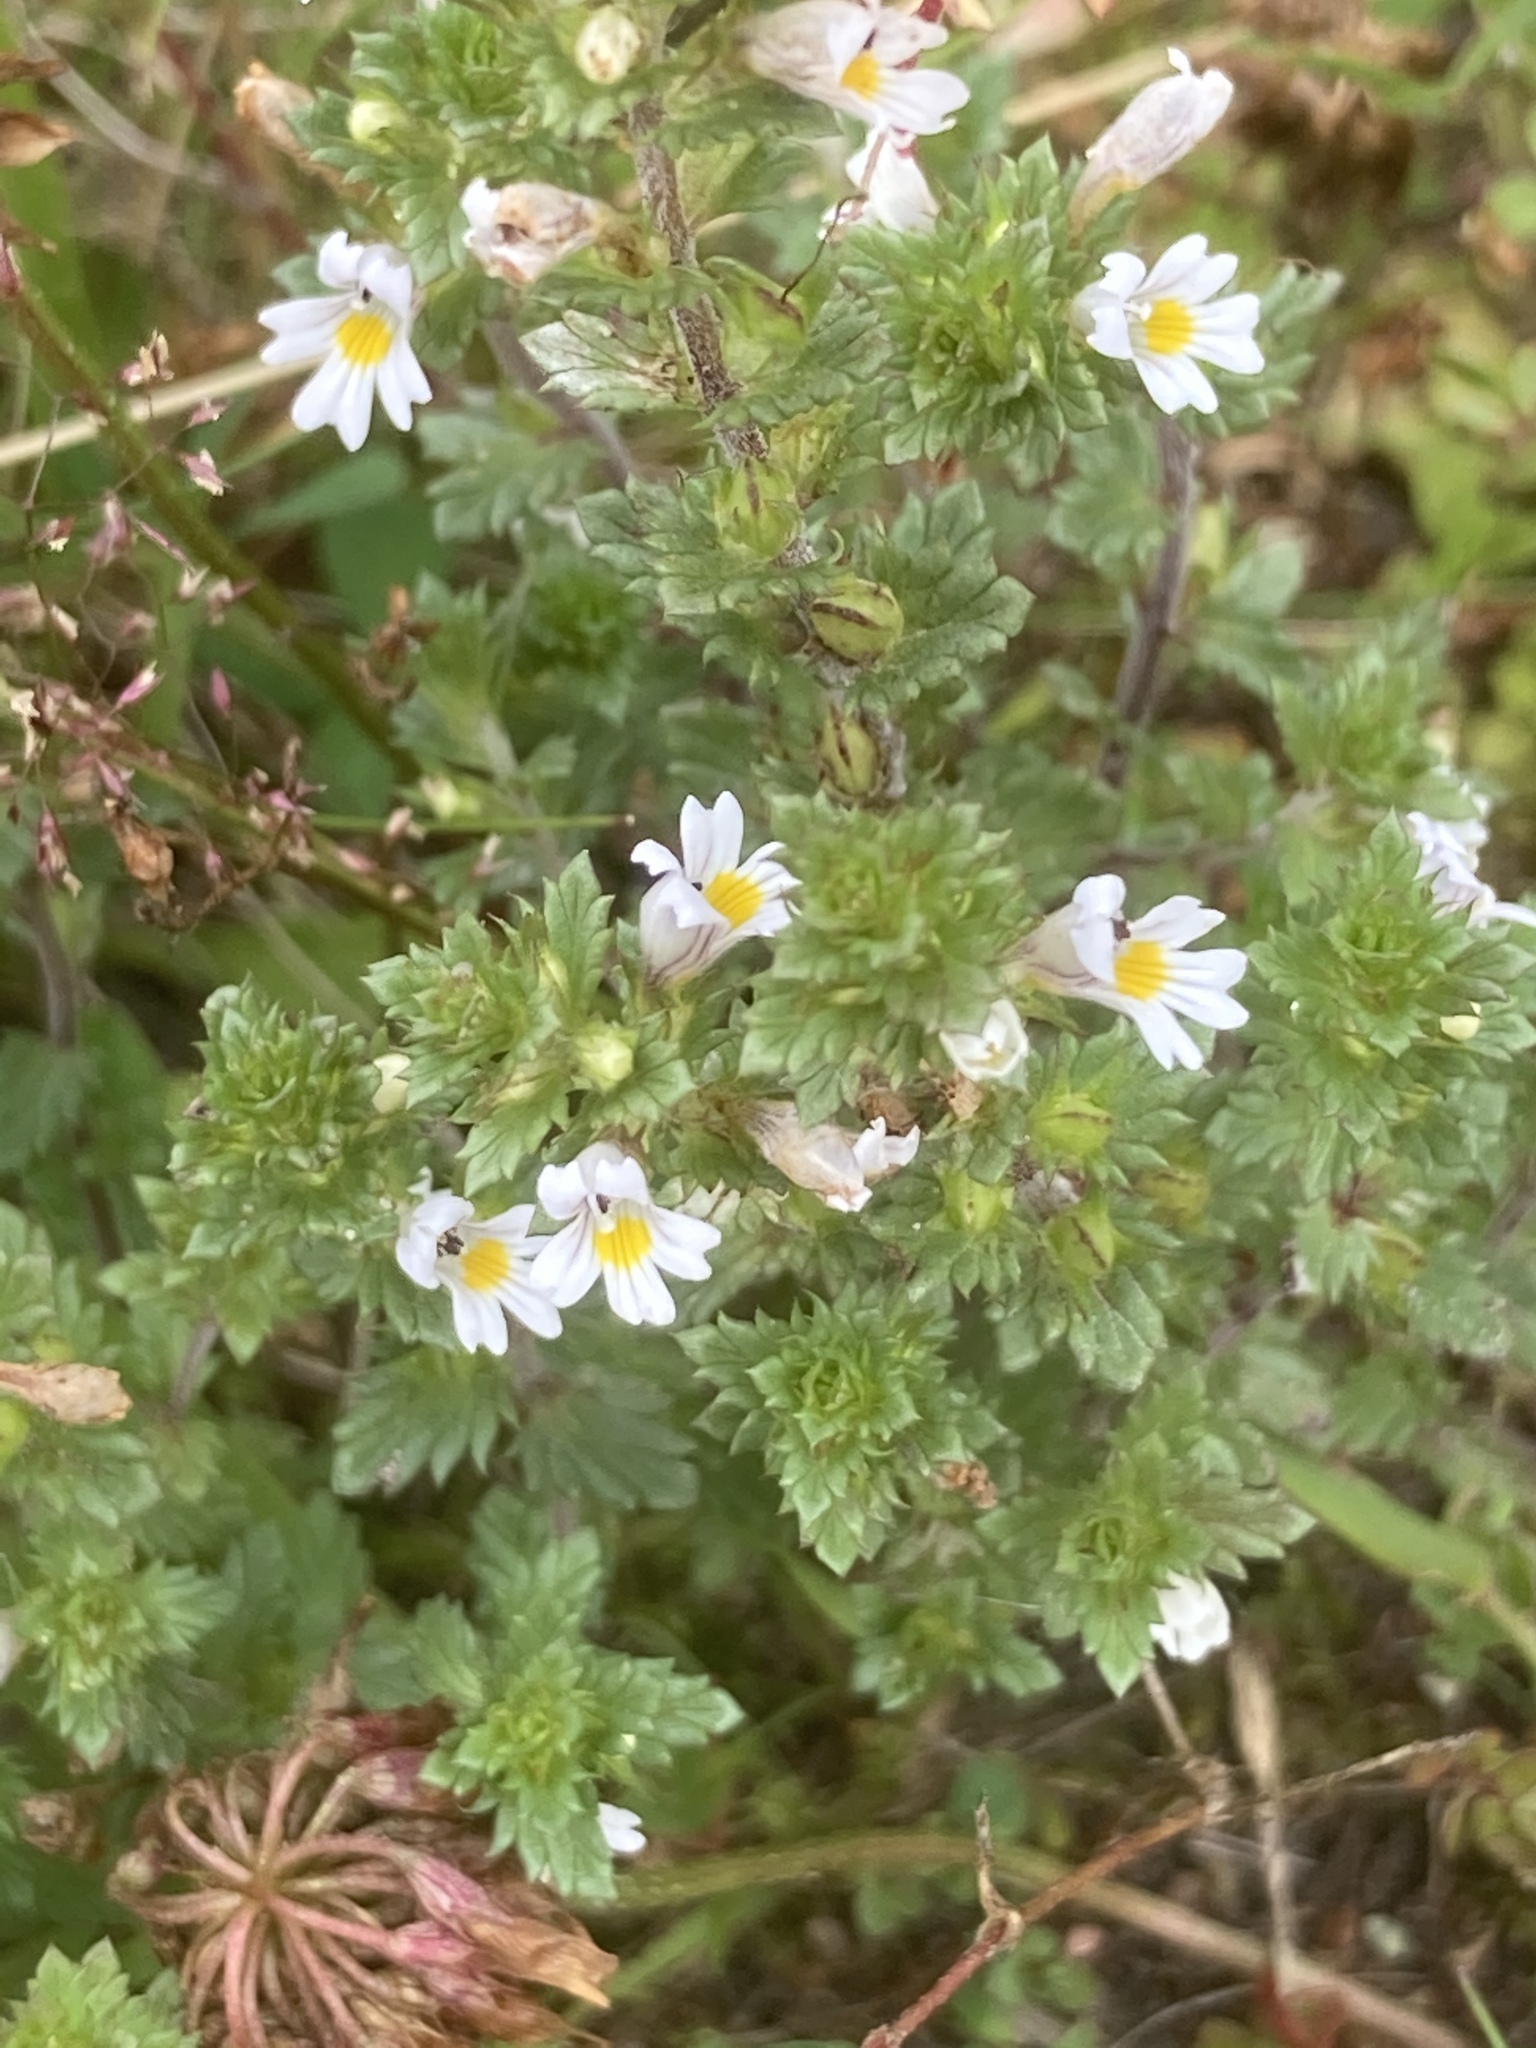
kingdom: Plantae
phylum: Tracheophyta
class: Magnoliopsida
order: Lamiales
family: Orobanchaceae
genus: Euphrasia
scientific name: Euphrasia stricta
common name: Drug eyebright
